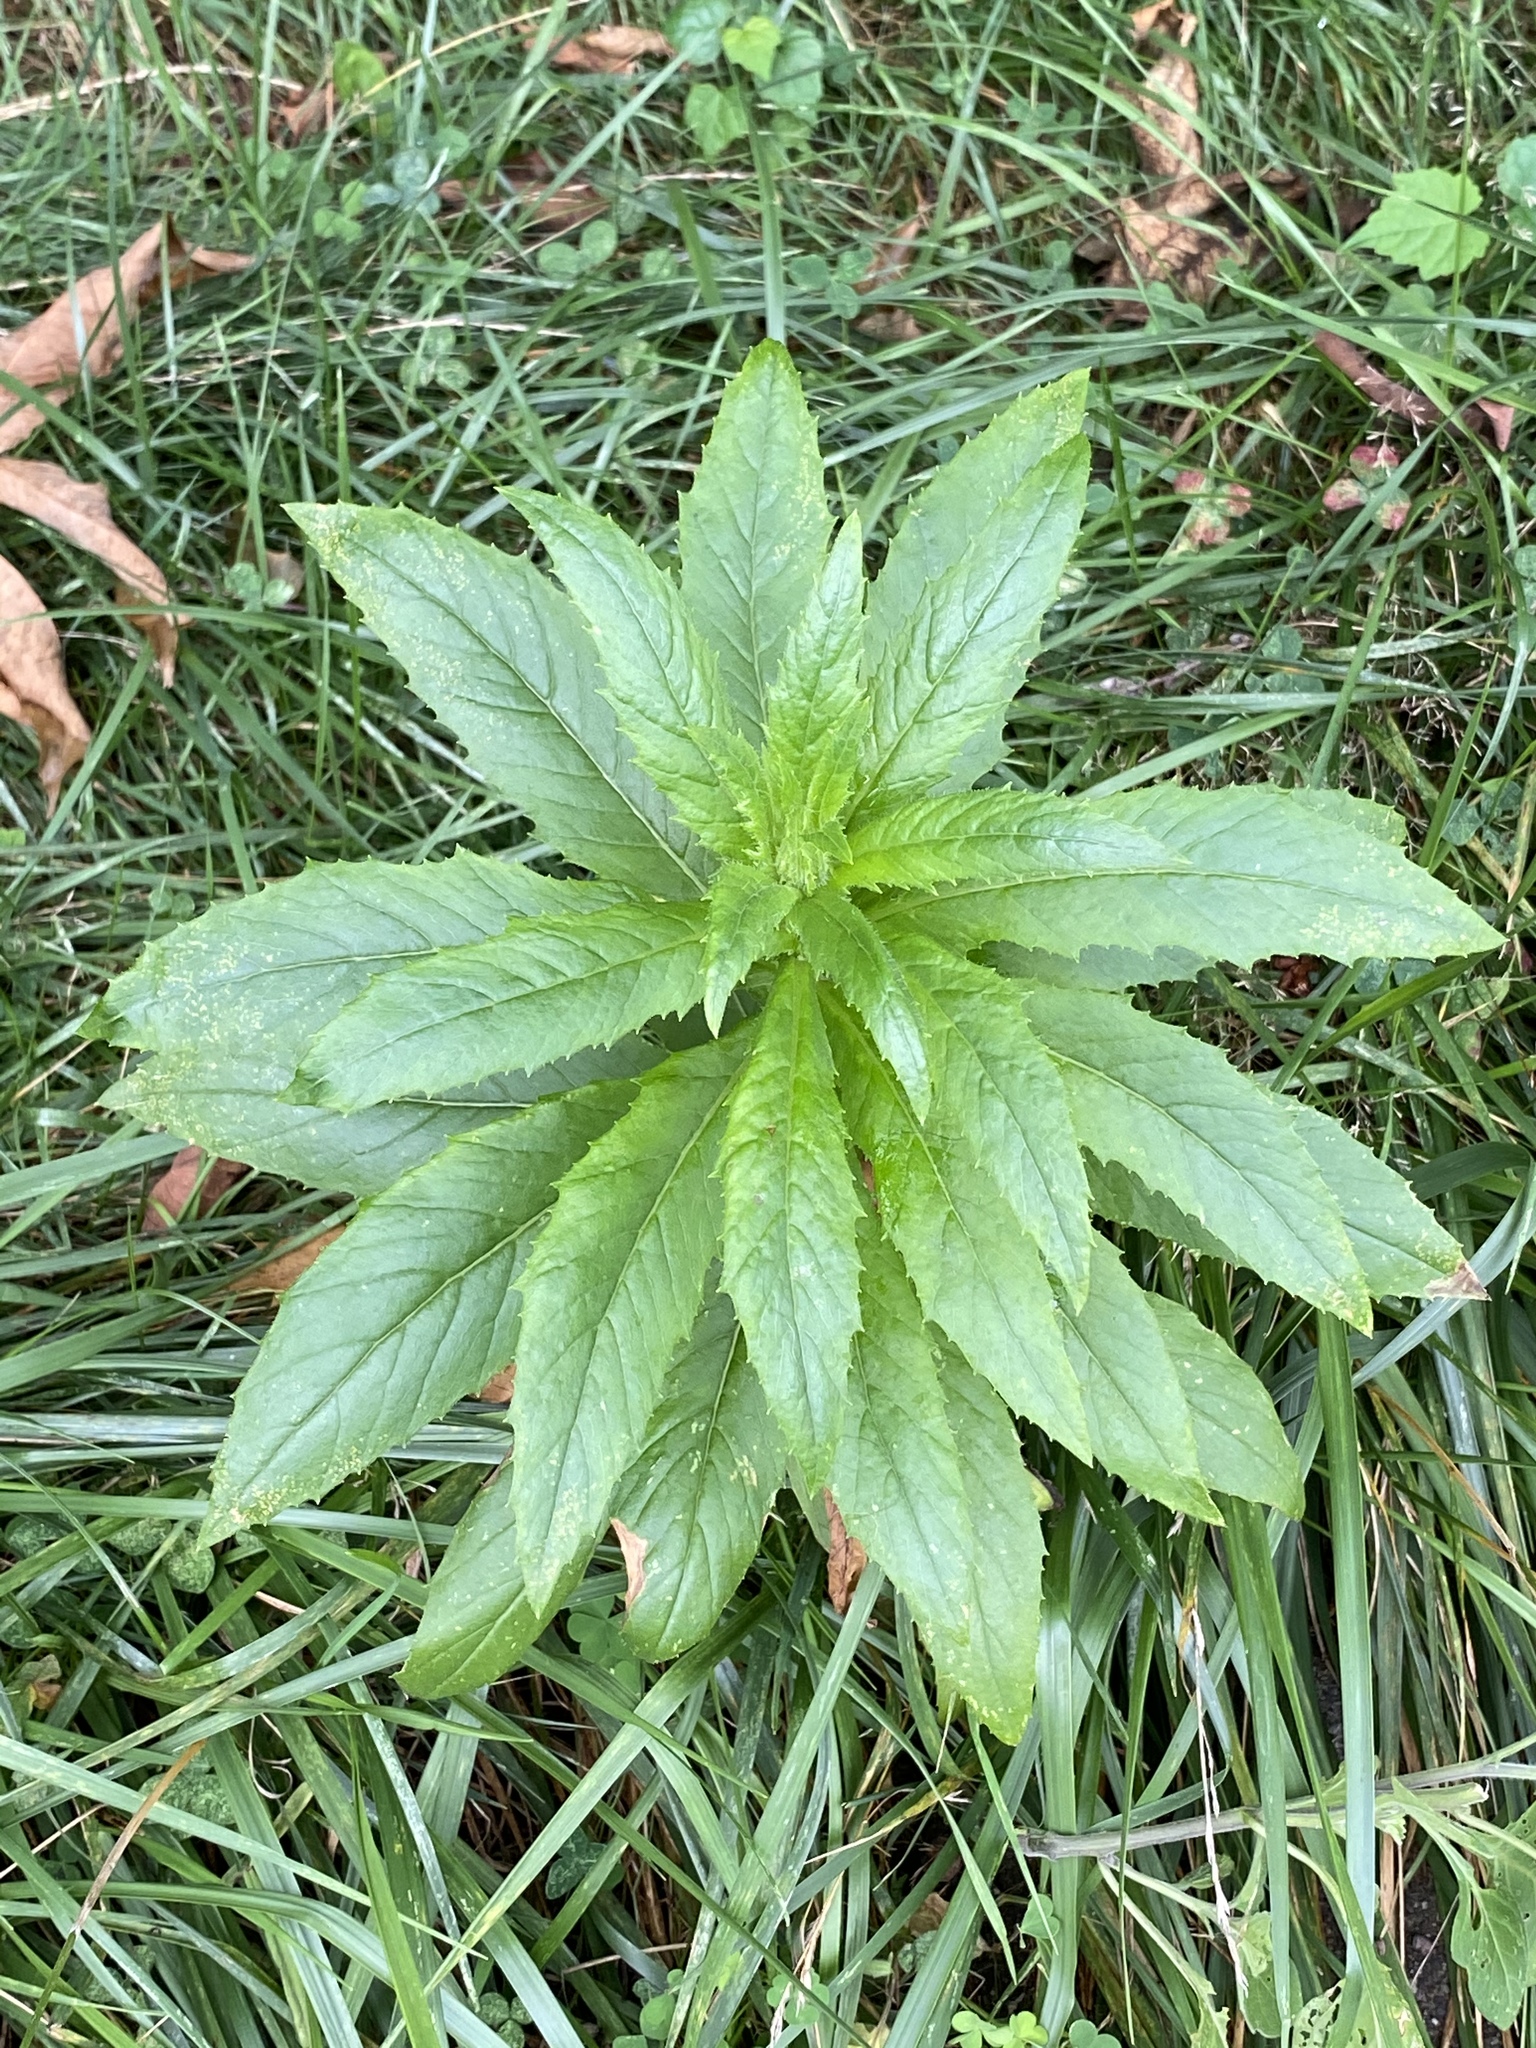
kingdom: Plantae
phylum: Tracheophyta
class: Magnoliopsida
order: Asterales
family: Asteraceae
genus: Erechtites
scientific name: Erechtites hieraciifolius
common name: American burnweed
